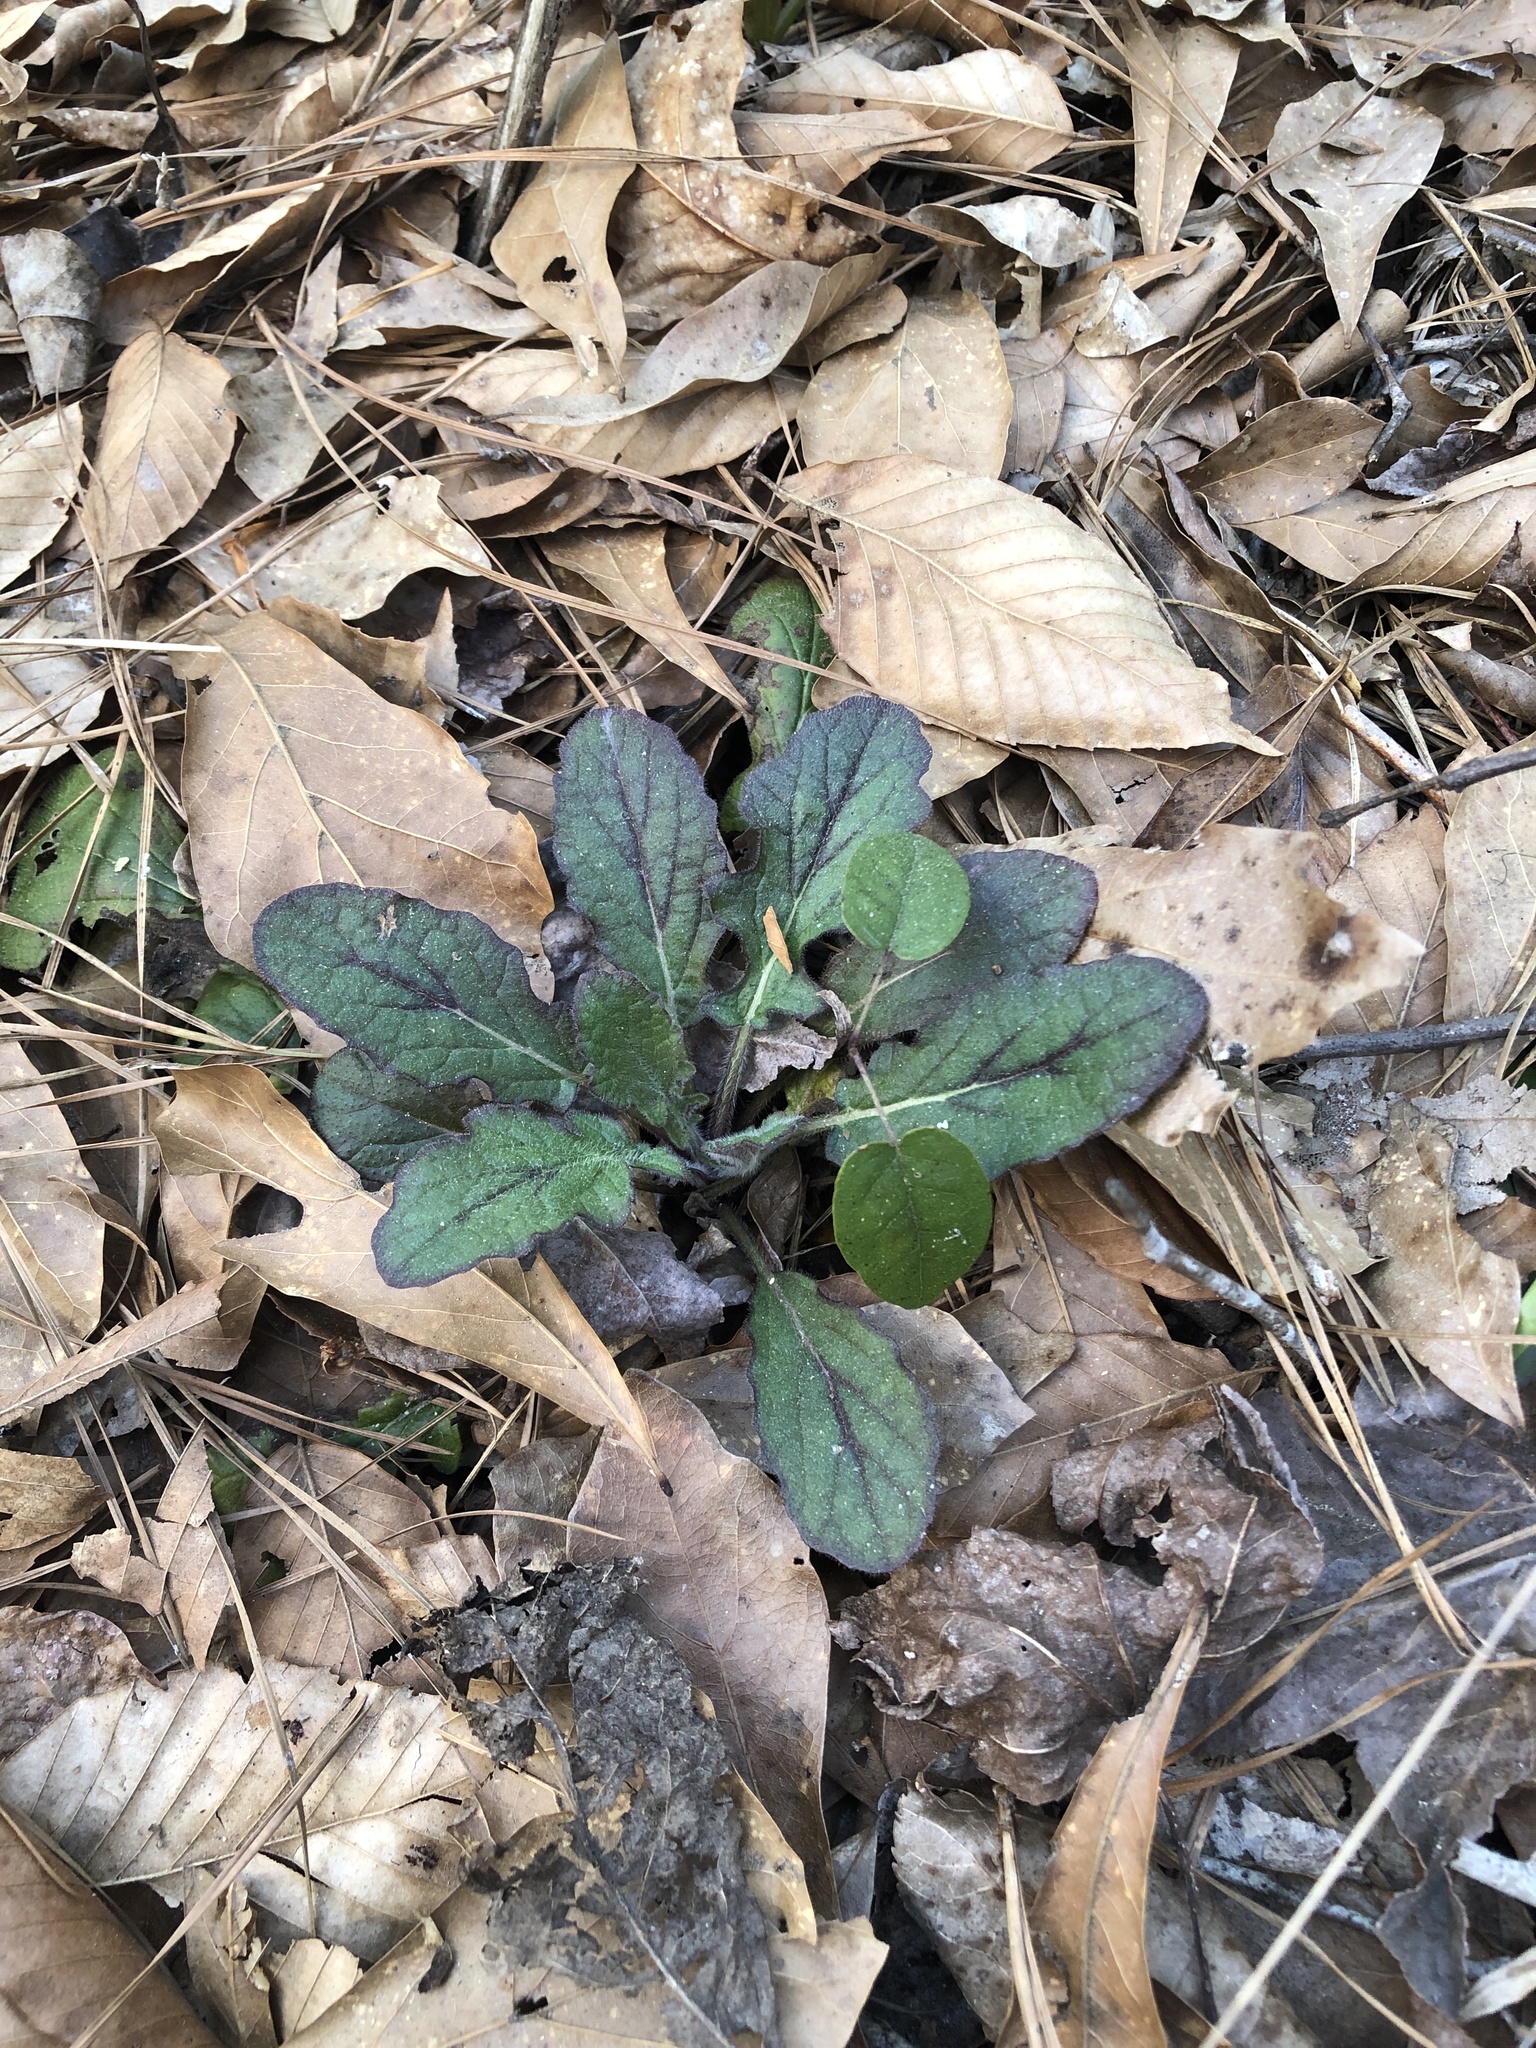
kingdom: Plantae
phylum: Tracheophyta
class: Magnoliopsida
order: Lamiales
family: Lamiaceae
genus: Salvia
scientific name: Salvia lyrata
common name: Cancerweed
